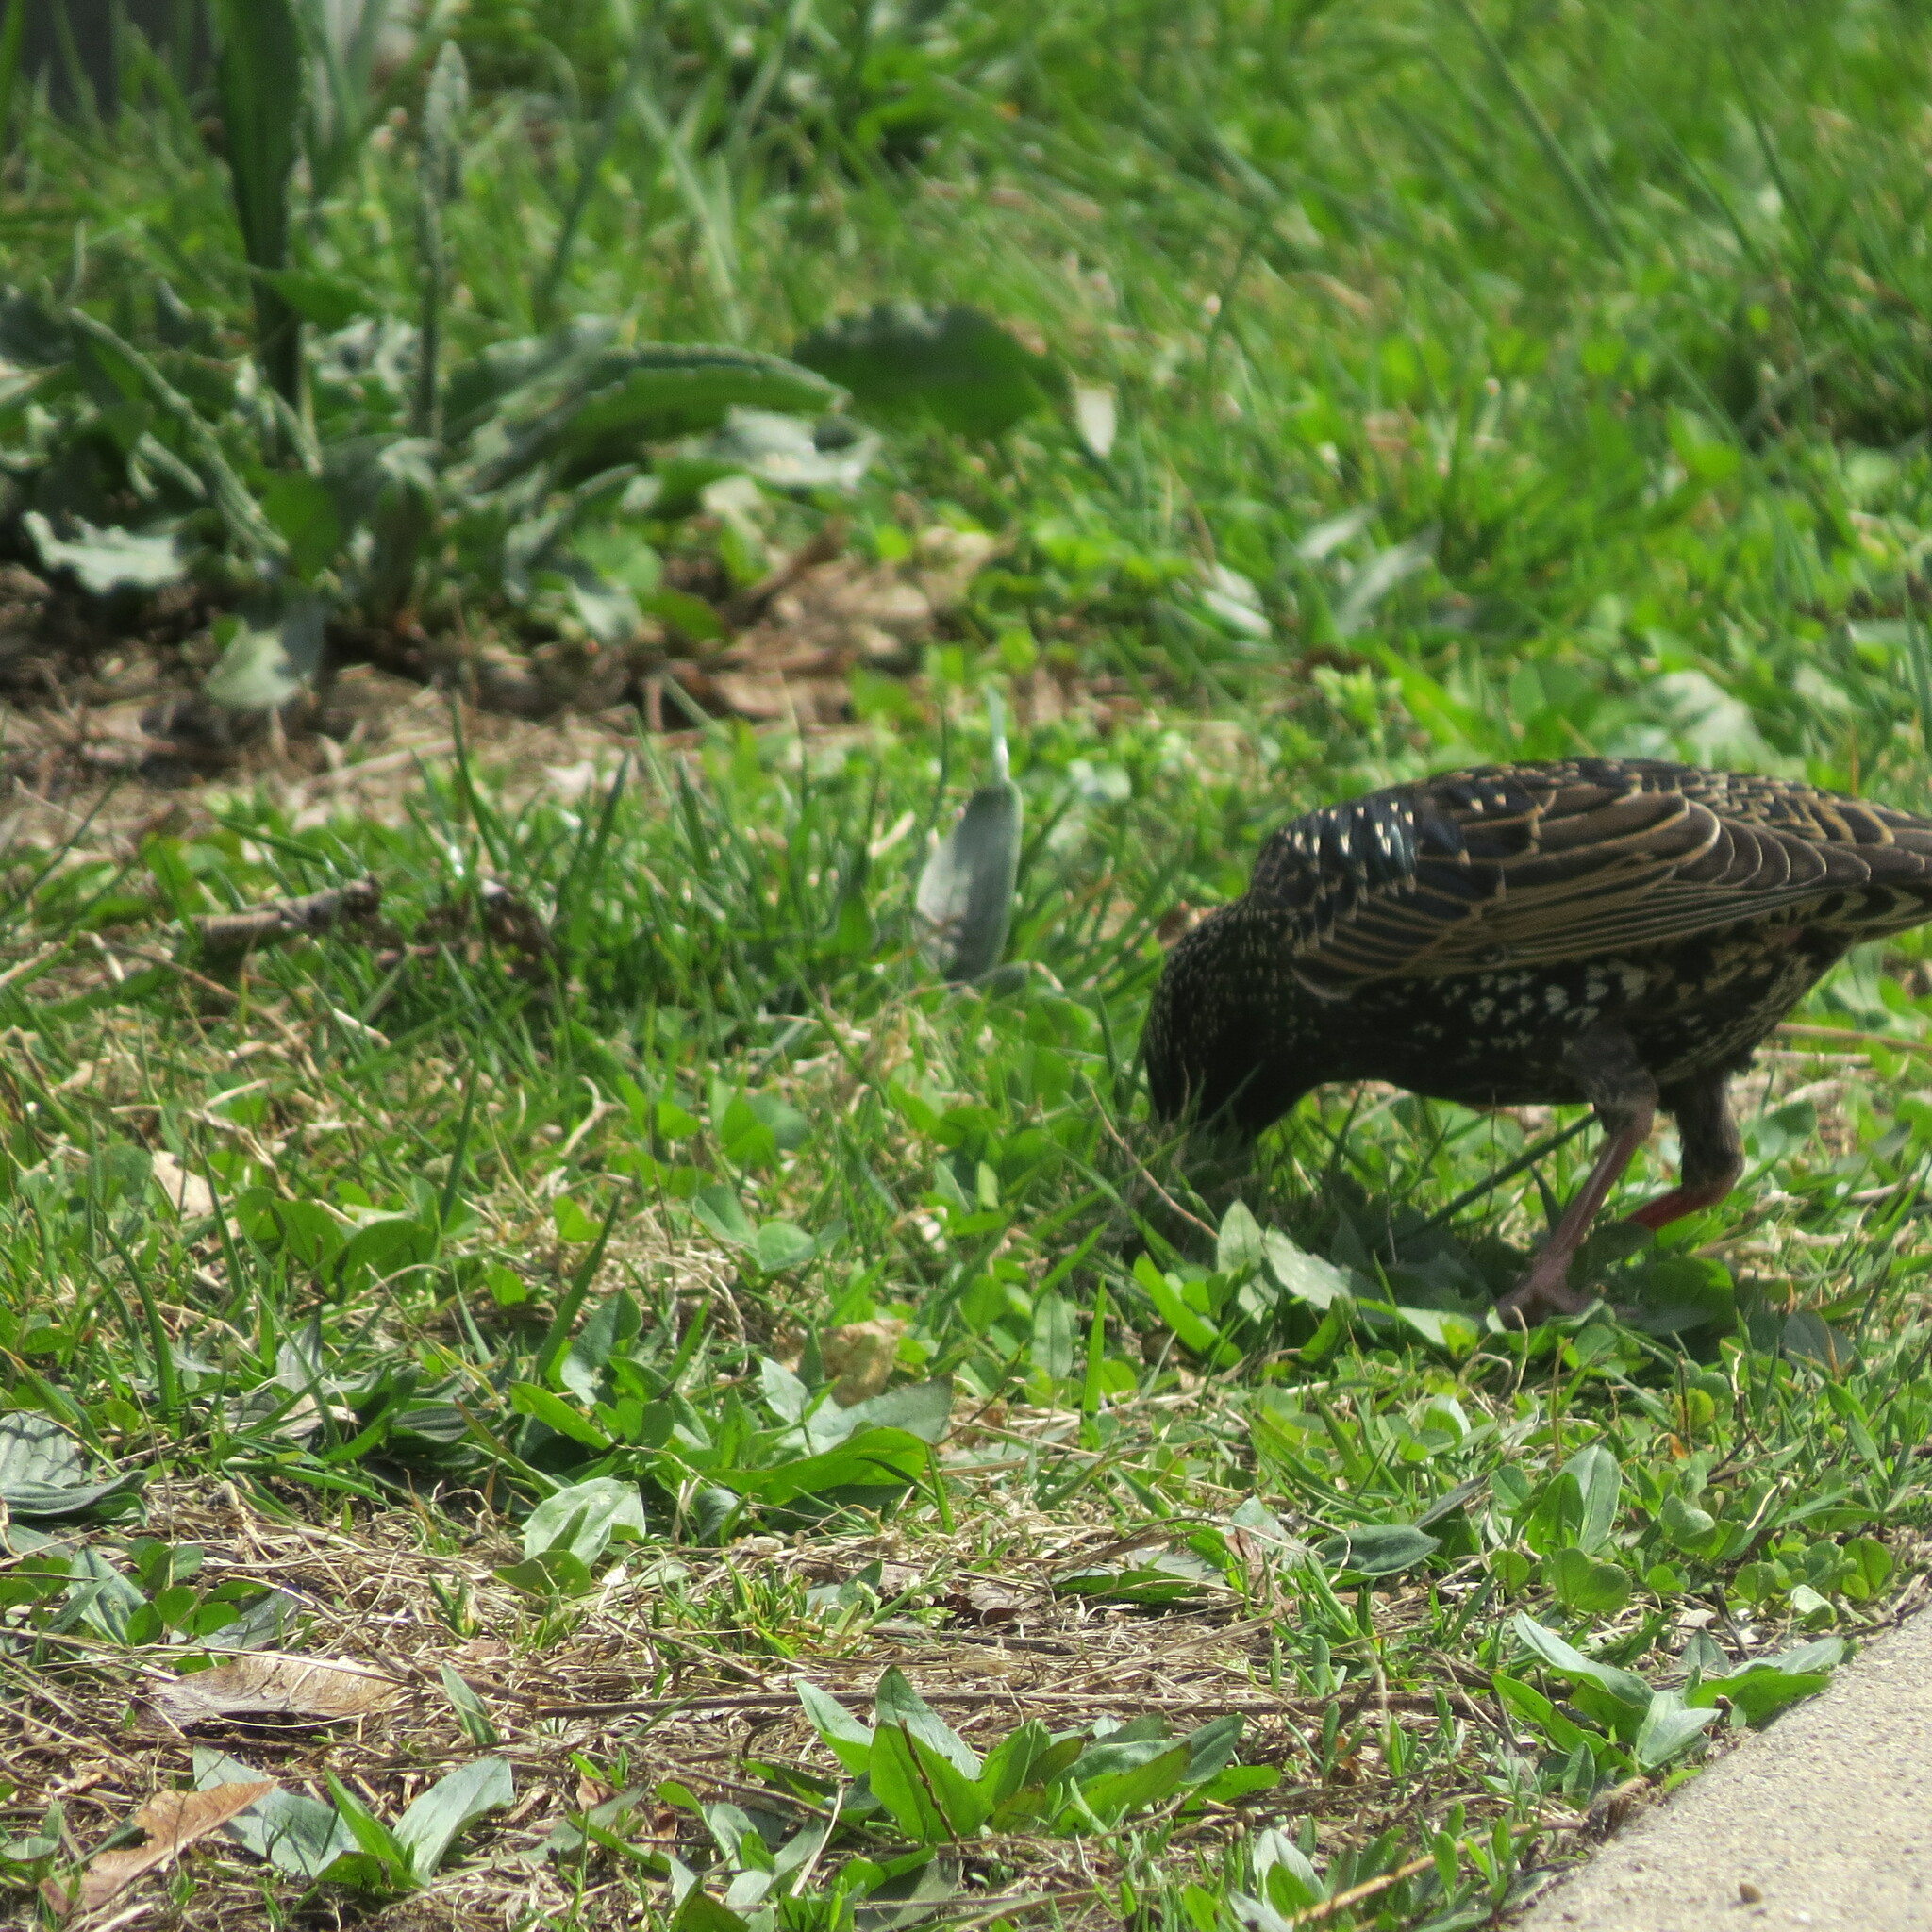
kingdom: Animalia
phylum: Chordata
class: Aves
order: Passeriformes
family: Sturnidae
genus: Sturnus
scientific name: Sturnus vulgaris
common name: Common starling
